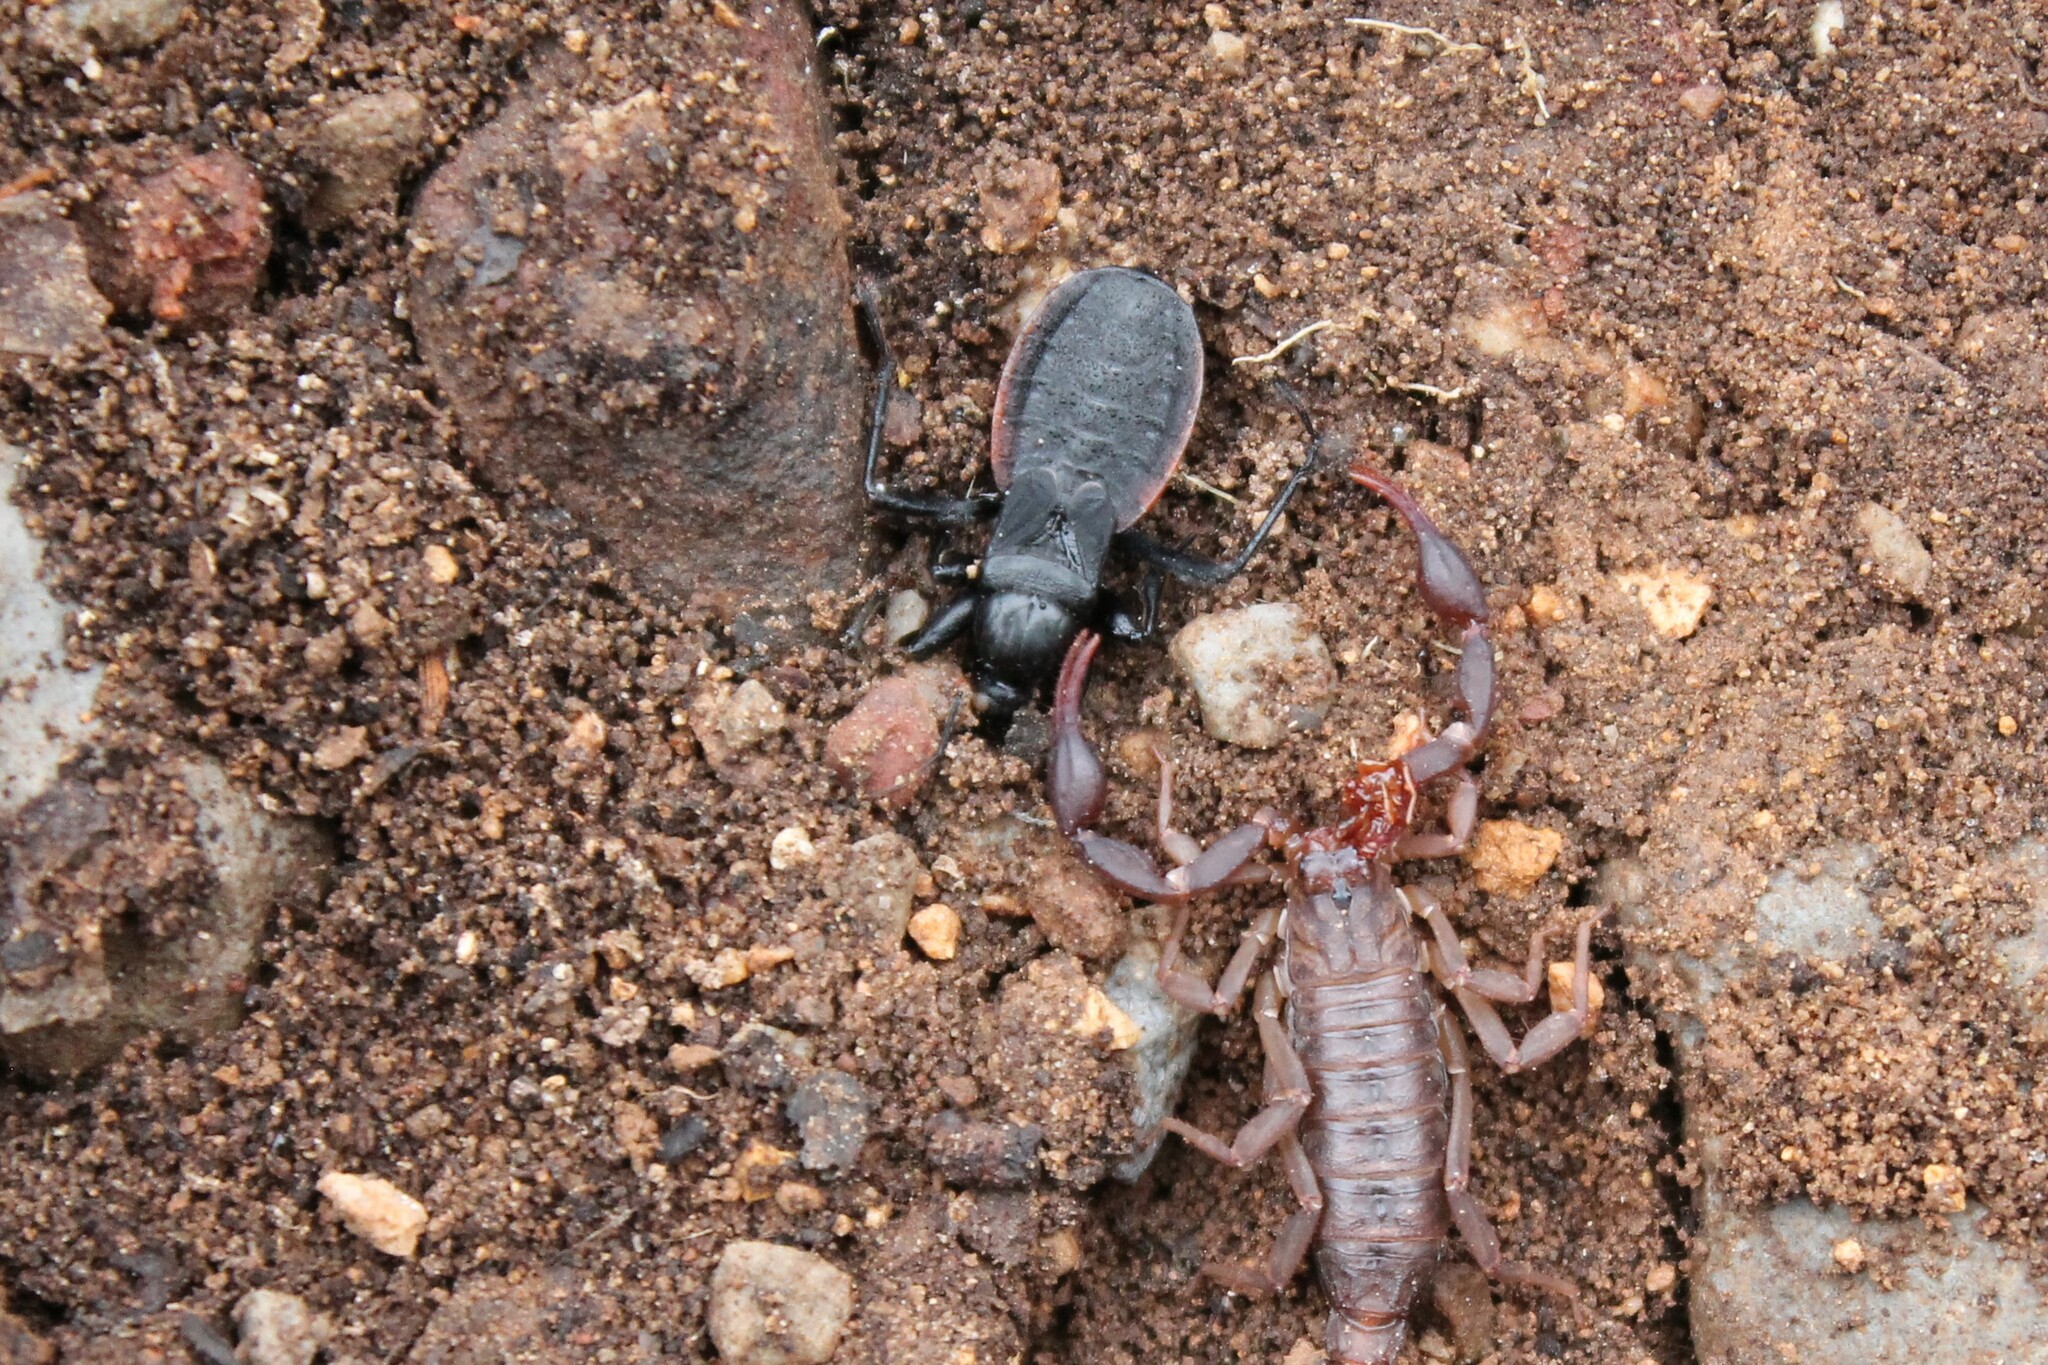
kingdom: Animalia
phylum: Arthropoda
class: Insecta
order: Hemiptera
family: Reduviidae
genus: Melanolestes
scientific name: Melanolestes picipes
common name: Assassin bug
